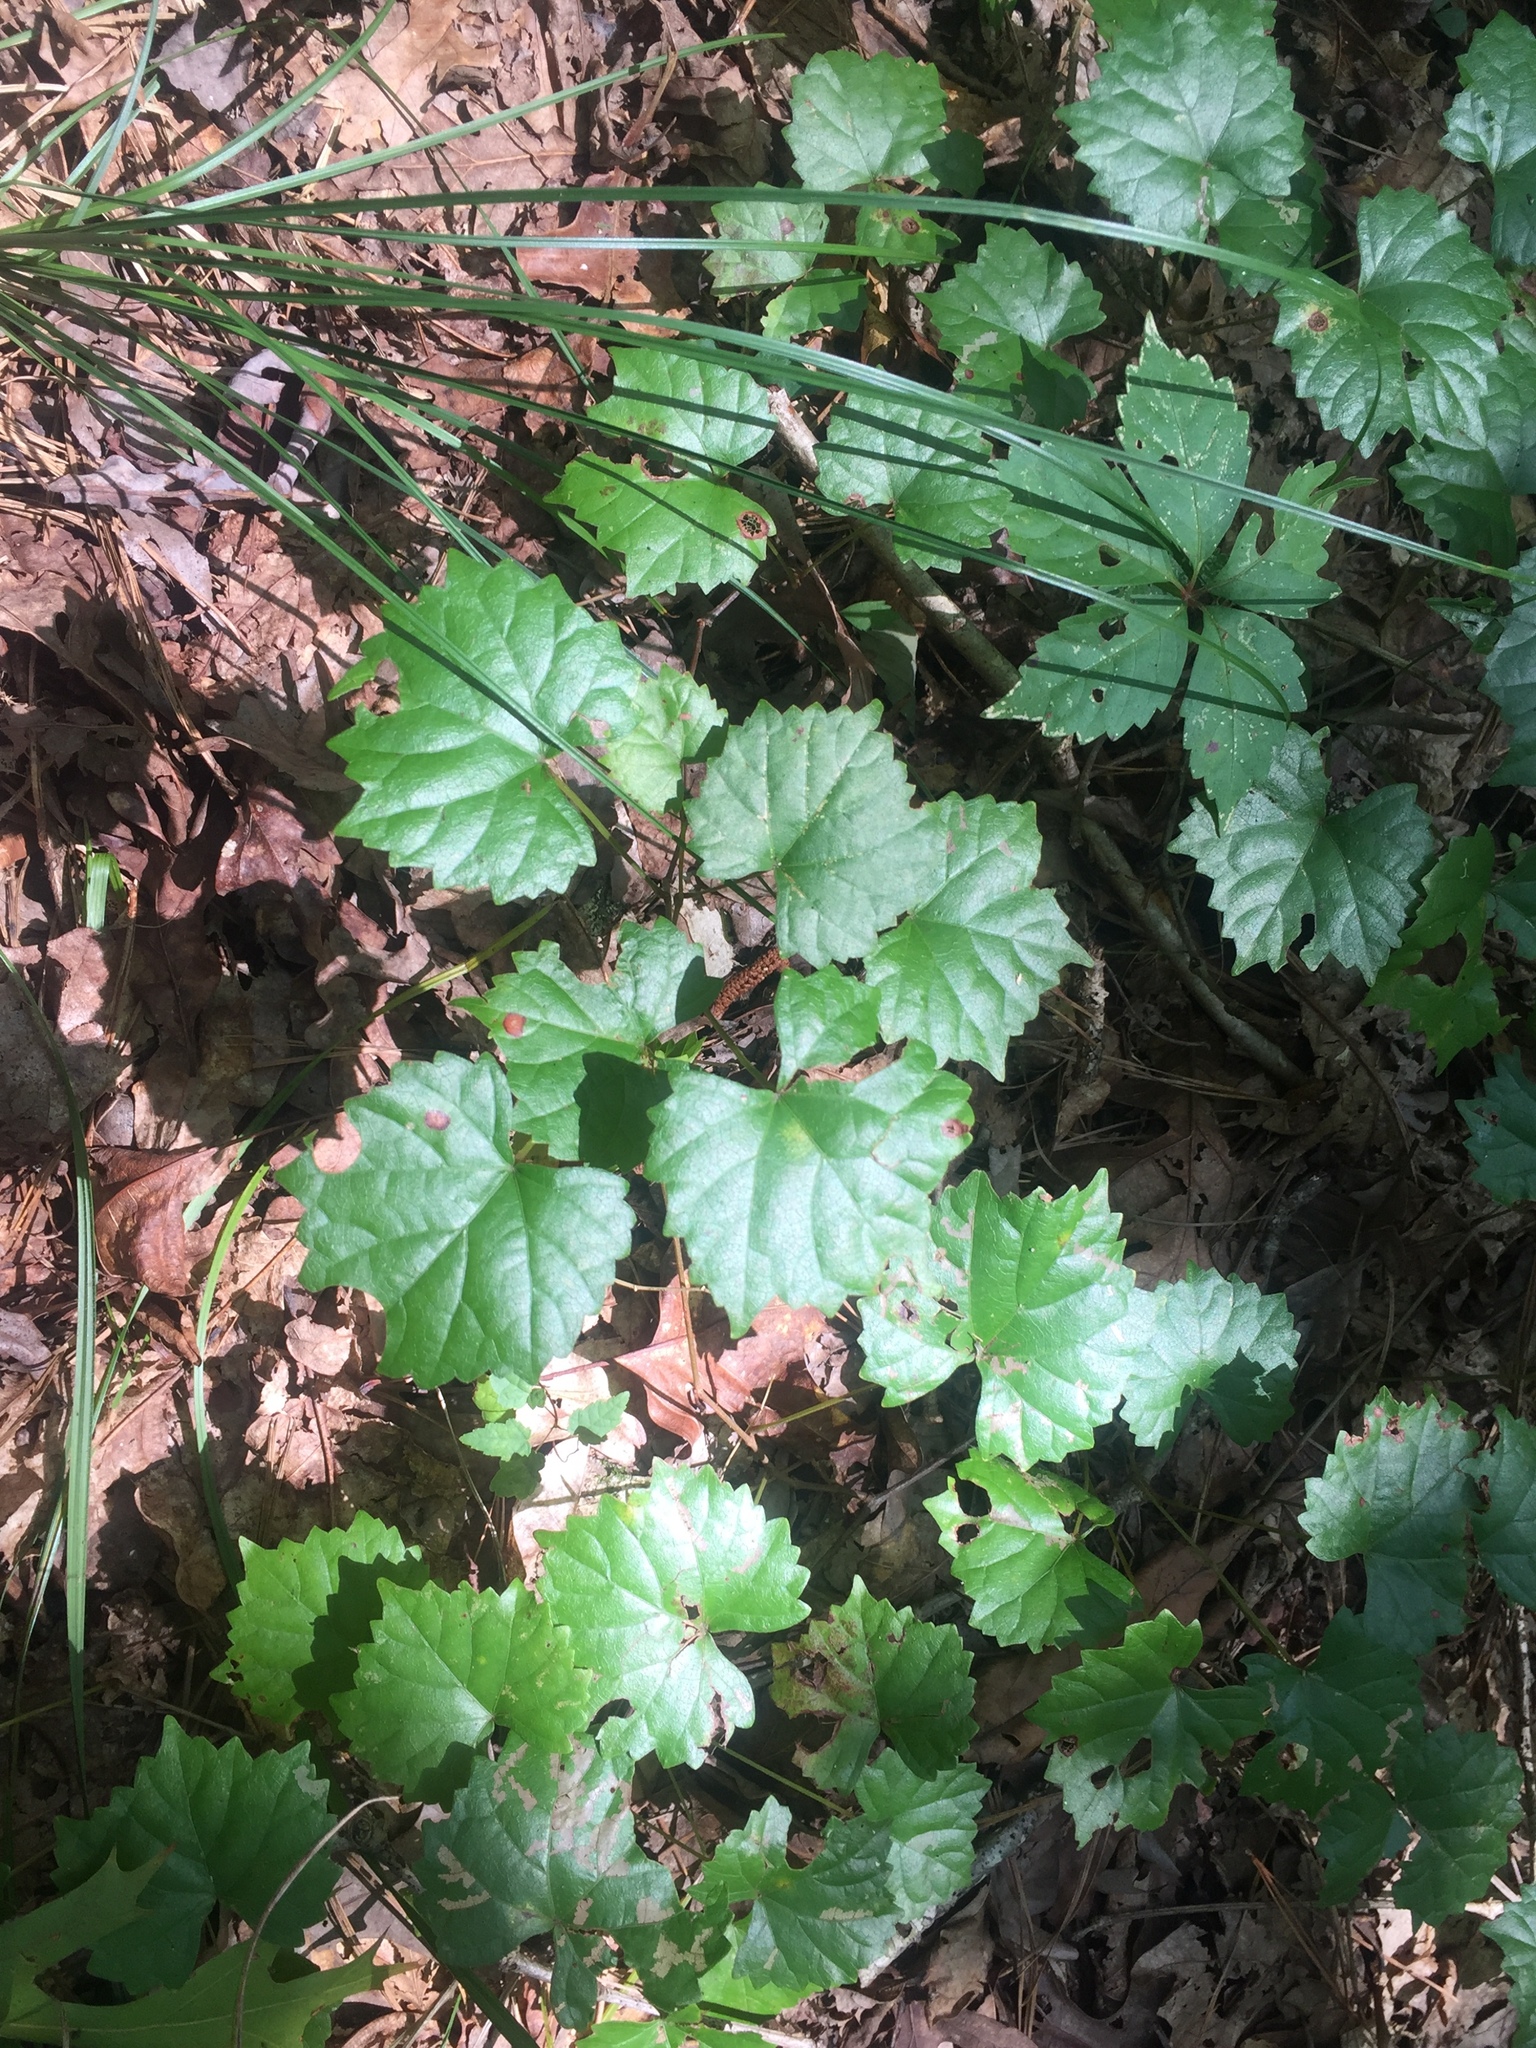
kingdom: Plantae
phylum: Tracheophyta
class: Magnoliopsida
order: Vitales
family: Vitaceae
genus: Vitis
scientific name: Vitis rotundifolia
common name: Muscadine grape
